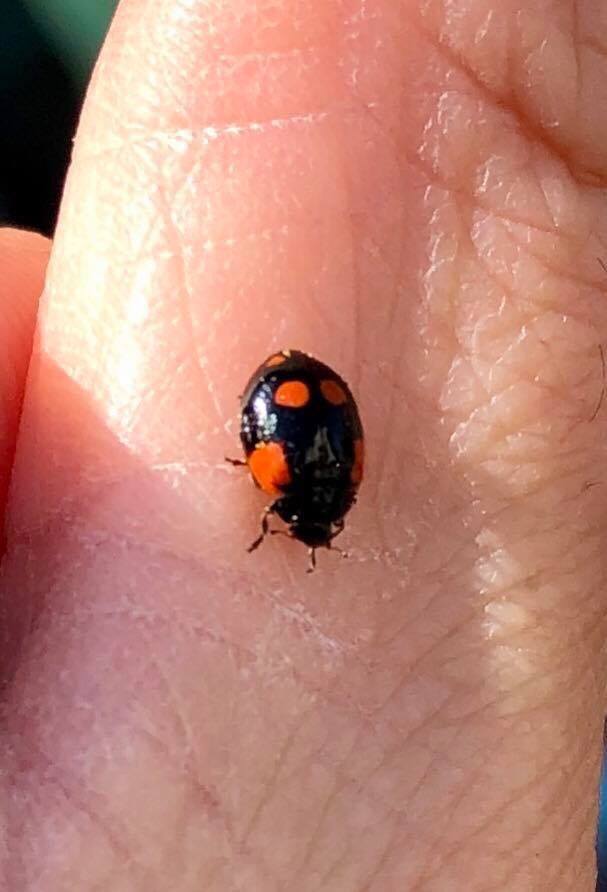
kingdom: Animalia
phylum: Arthropoda
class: Insecta
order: Coleoptera
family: Coccinellidae
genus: Adalia
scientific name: Adalia bipunctata
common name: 2-spot ladybird
